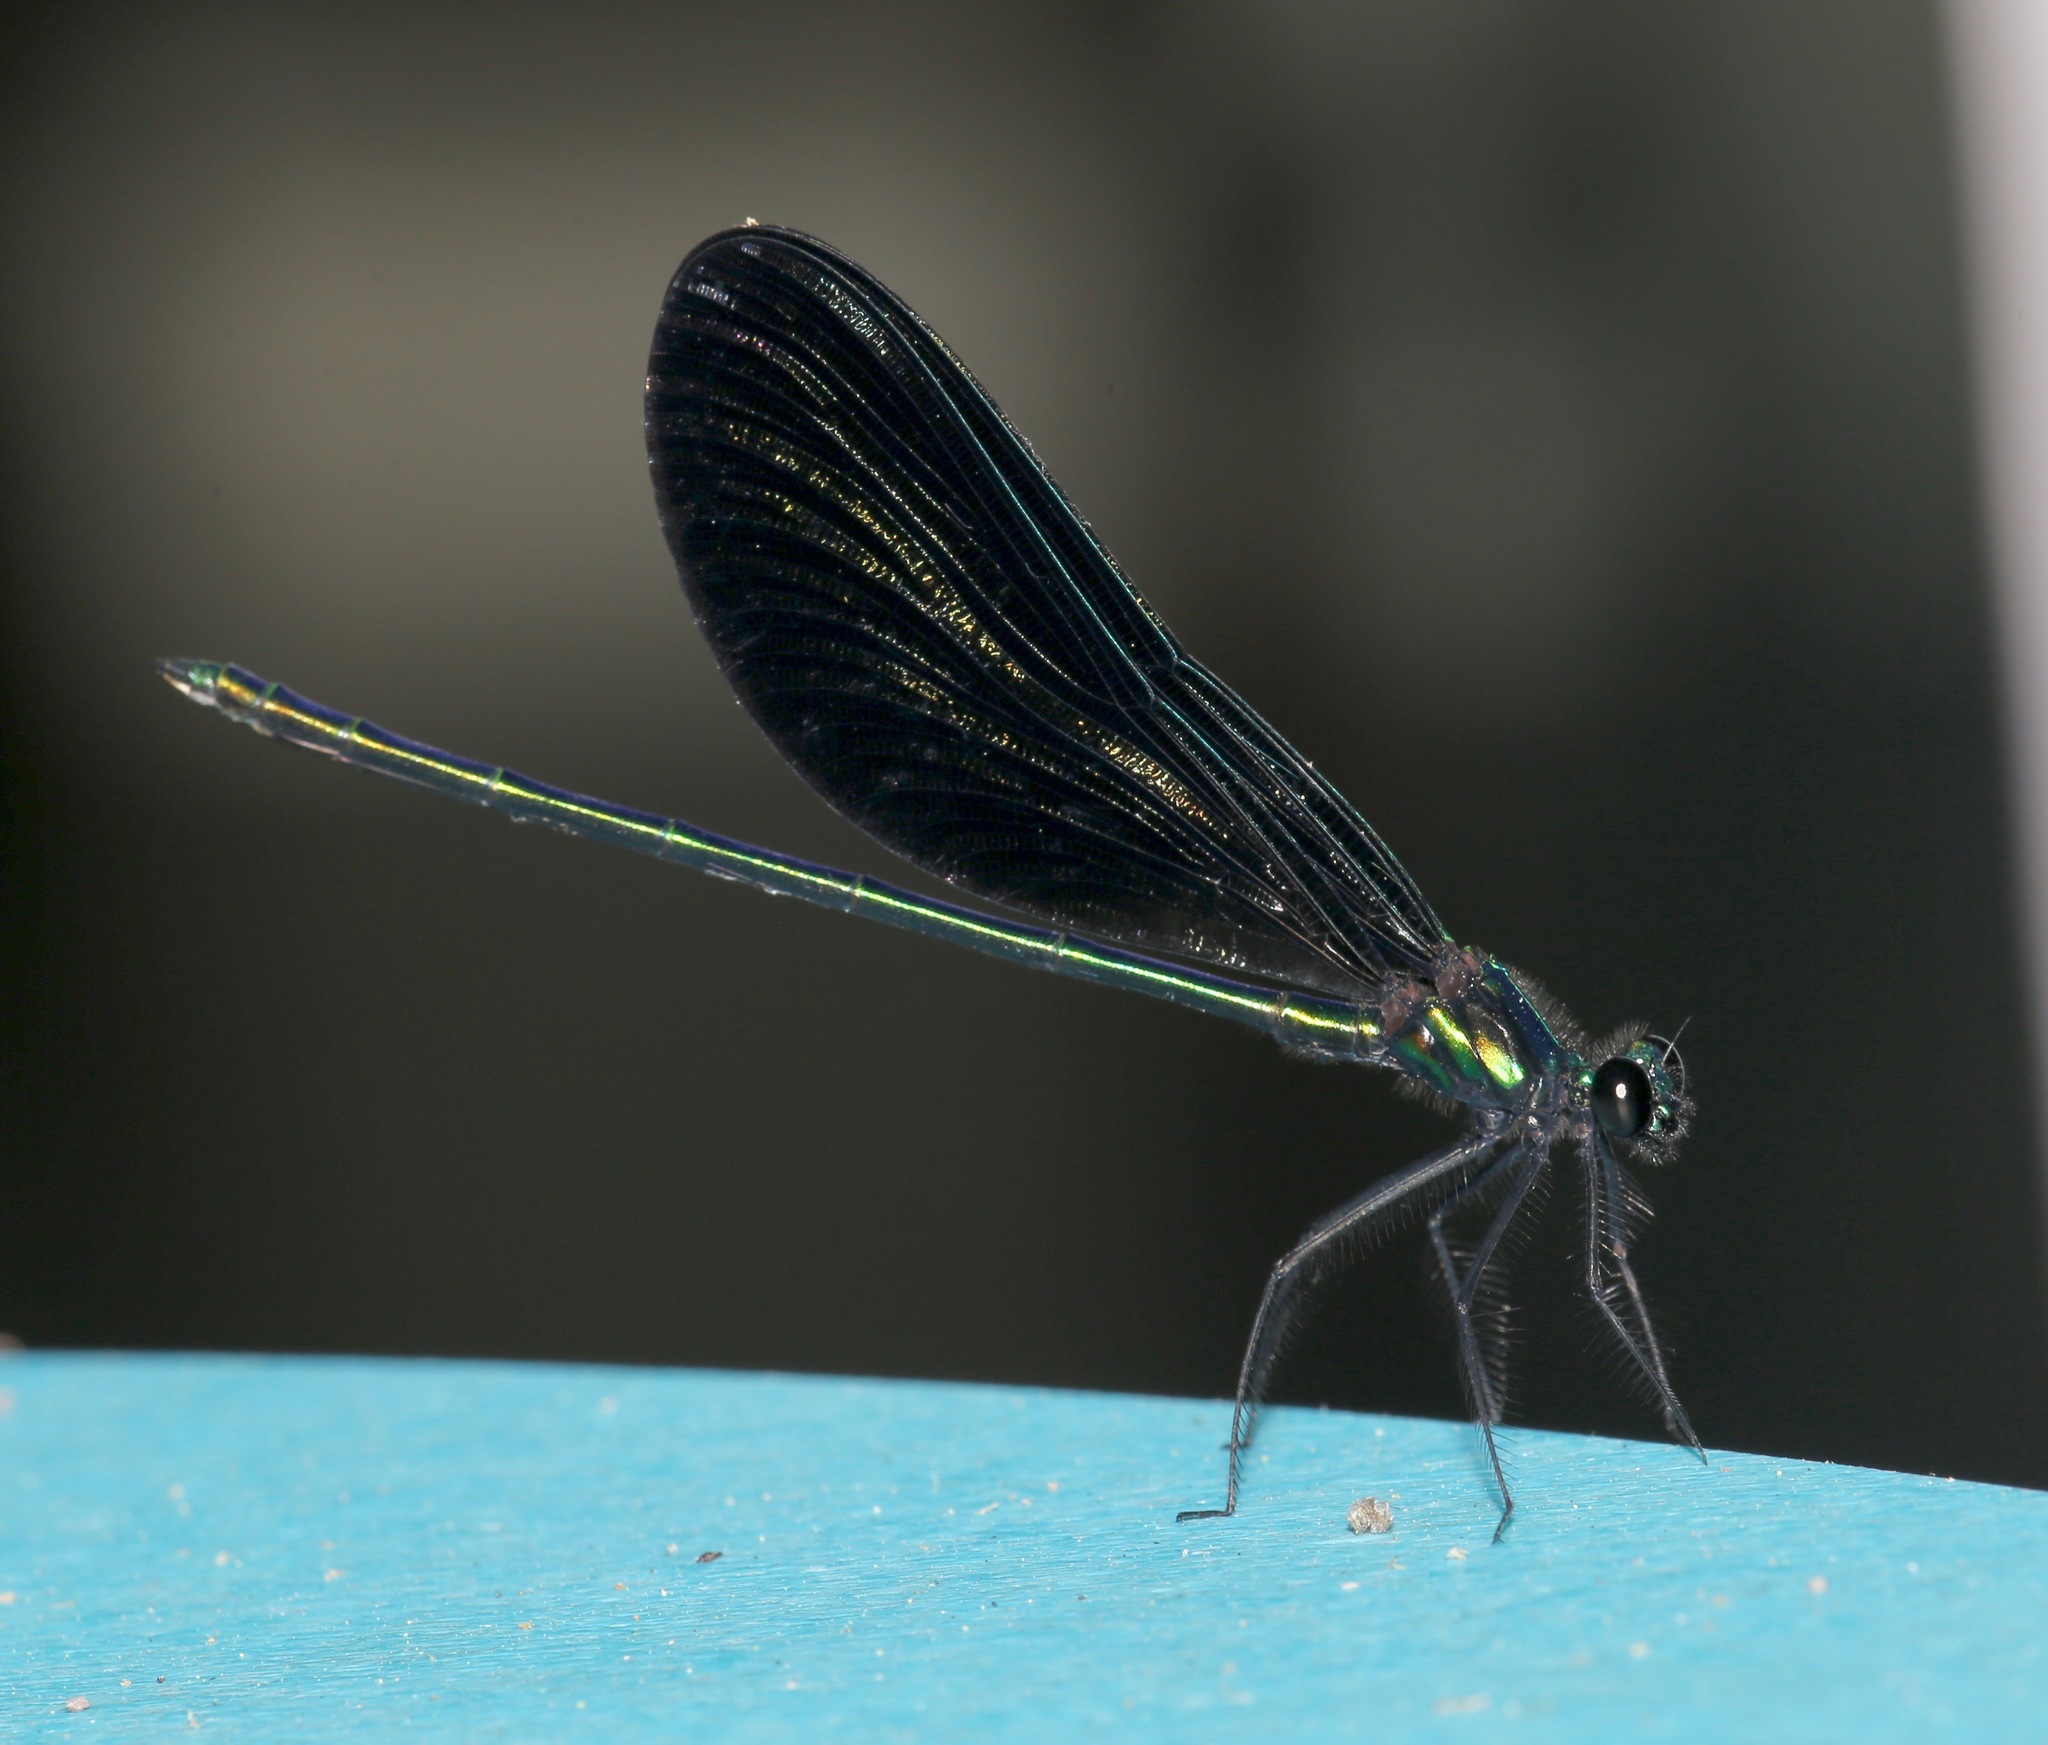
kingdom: Animalia
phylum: Arthropoda
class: Insecta
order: Odonata
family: Calopterygidae
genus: Calopteryx
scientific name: Calopteryx maculata
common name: Ebony jewelwing
